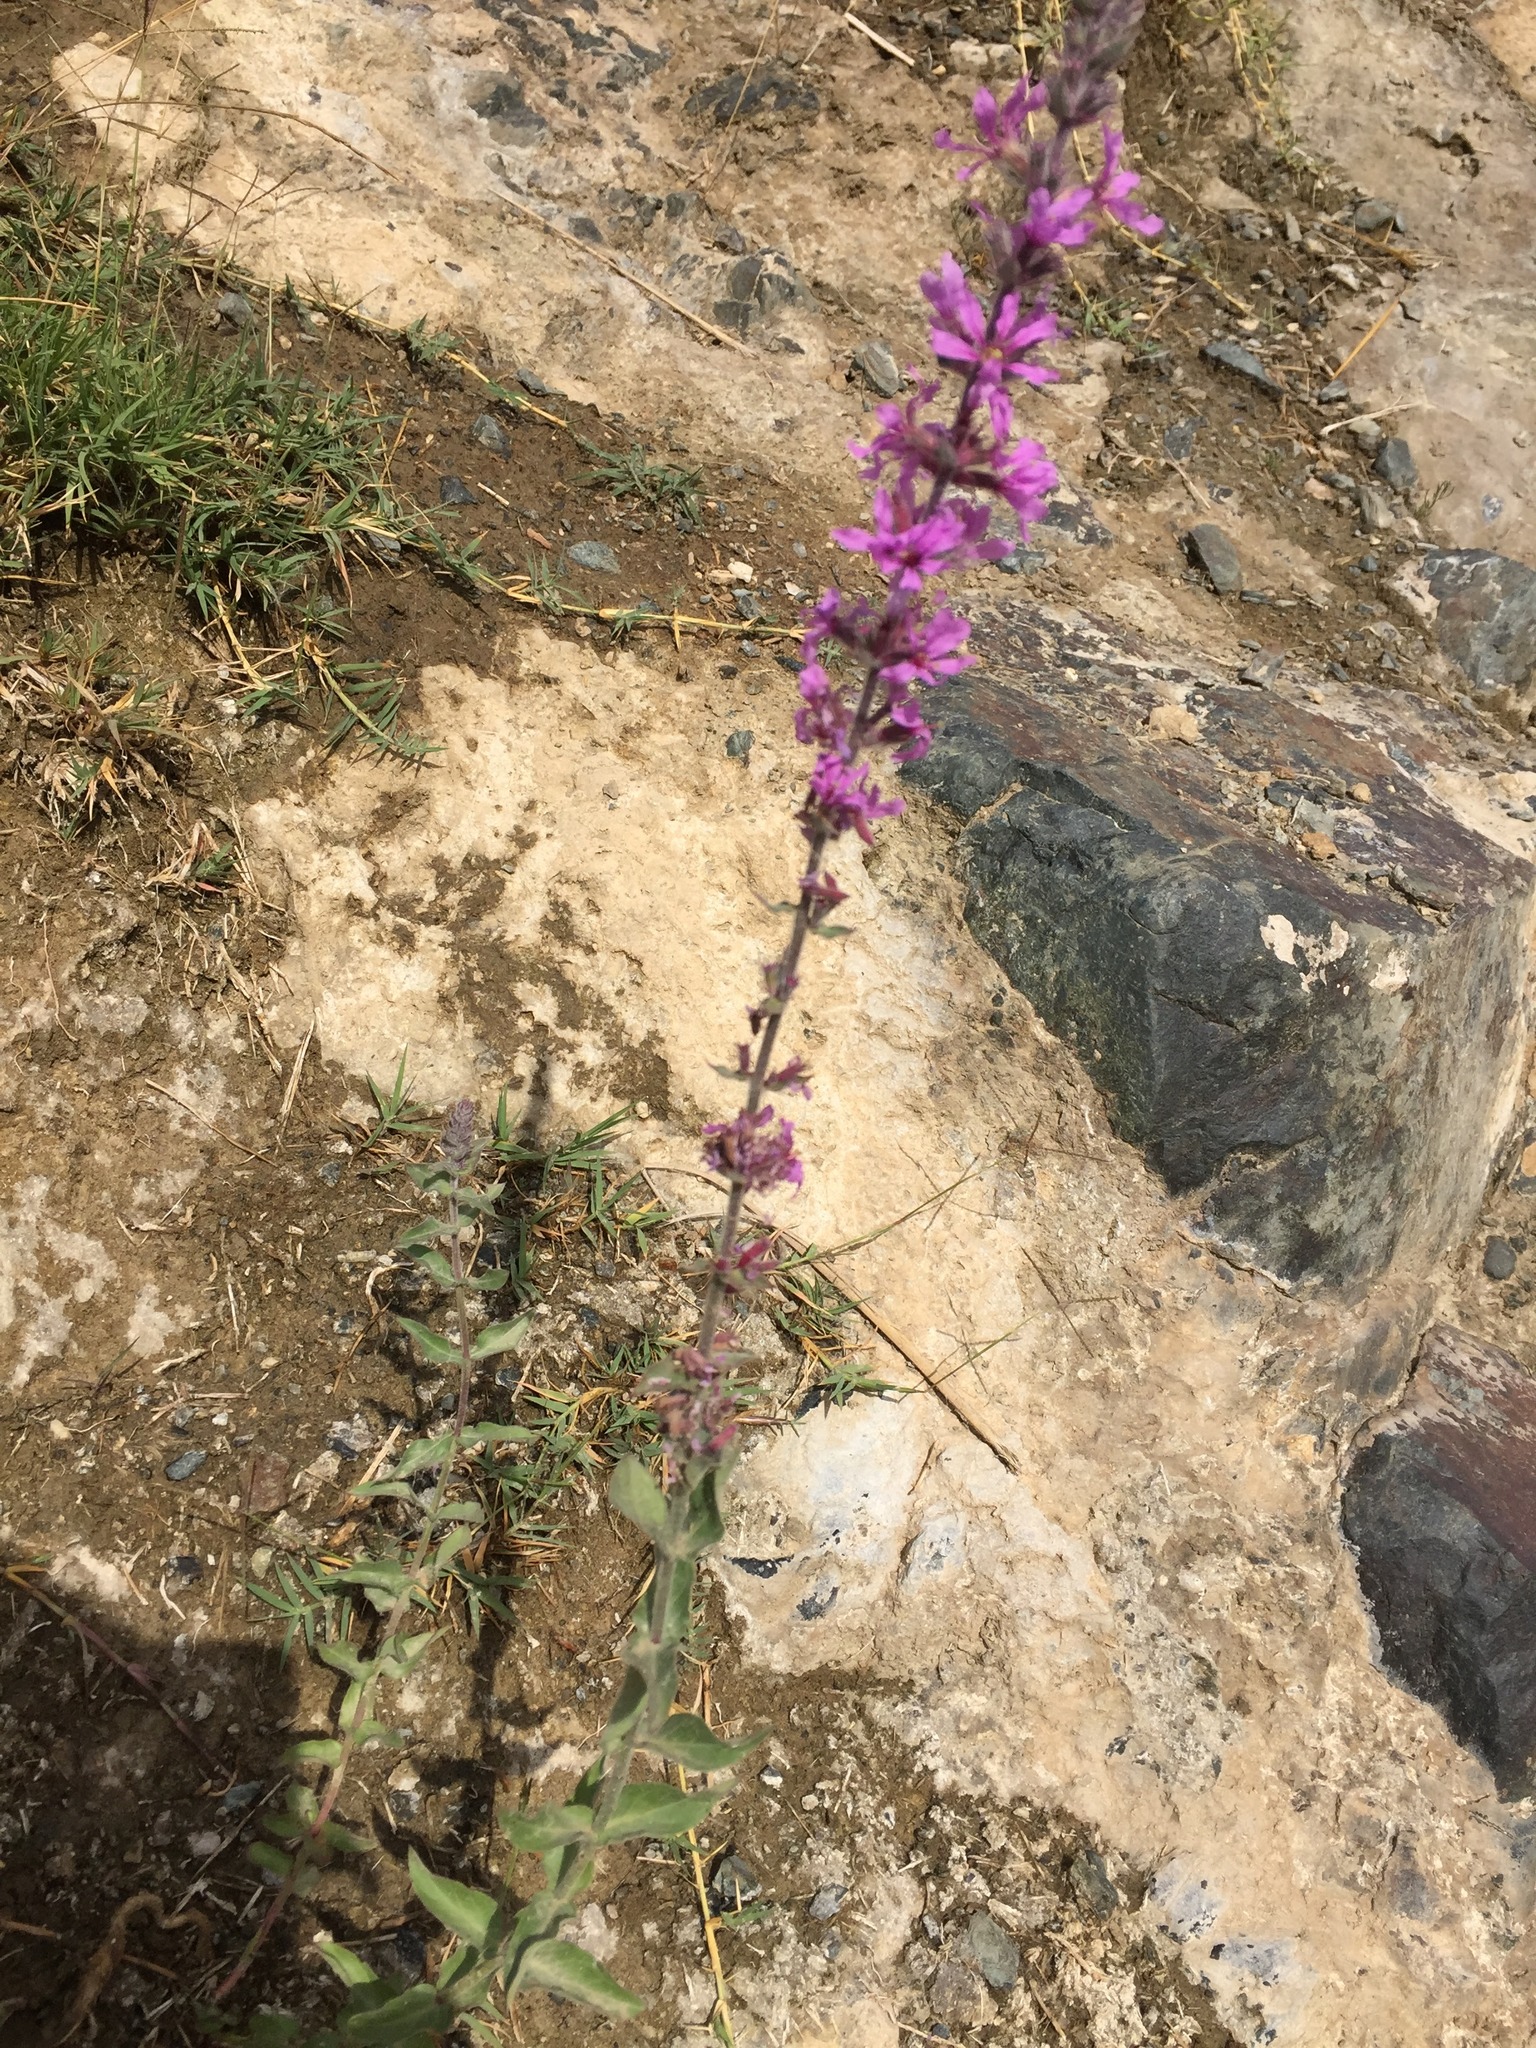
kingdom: Plantae
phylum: Tracheophyta
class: Magnoliopsida
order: Myrtales
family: Lythraceae
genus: Lythrum
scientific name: Lythrum salicaria
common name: Purple loosestrife
